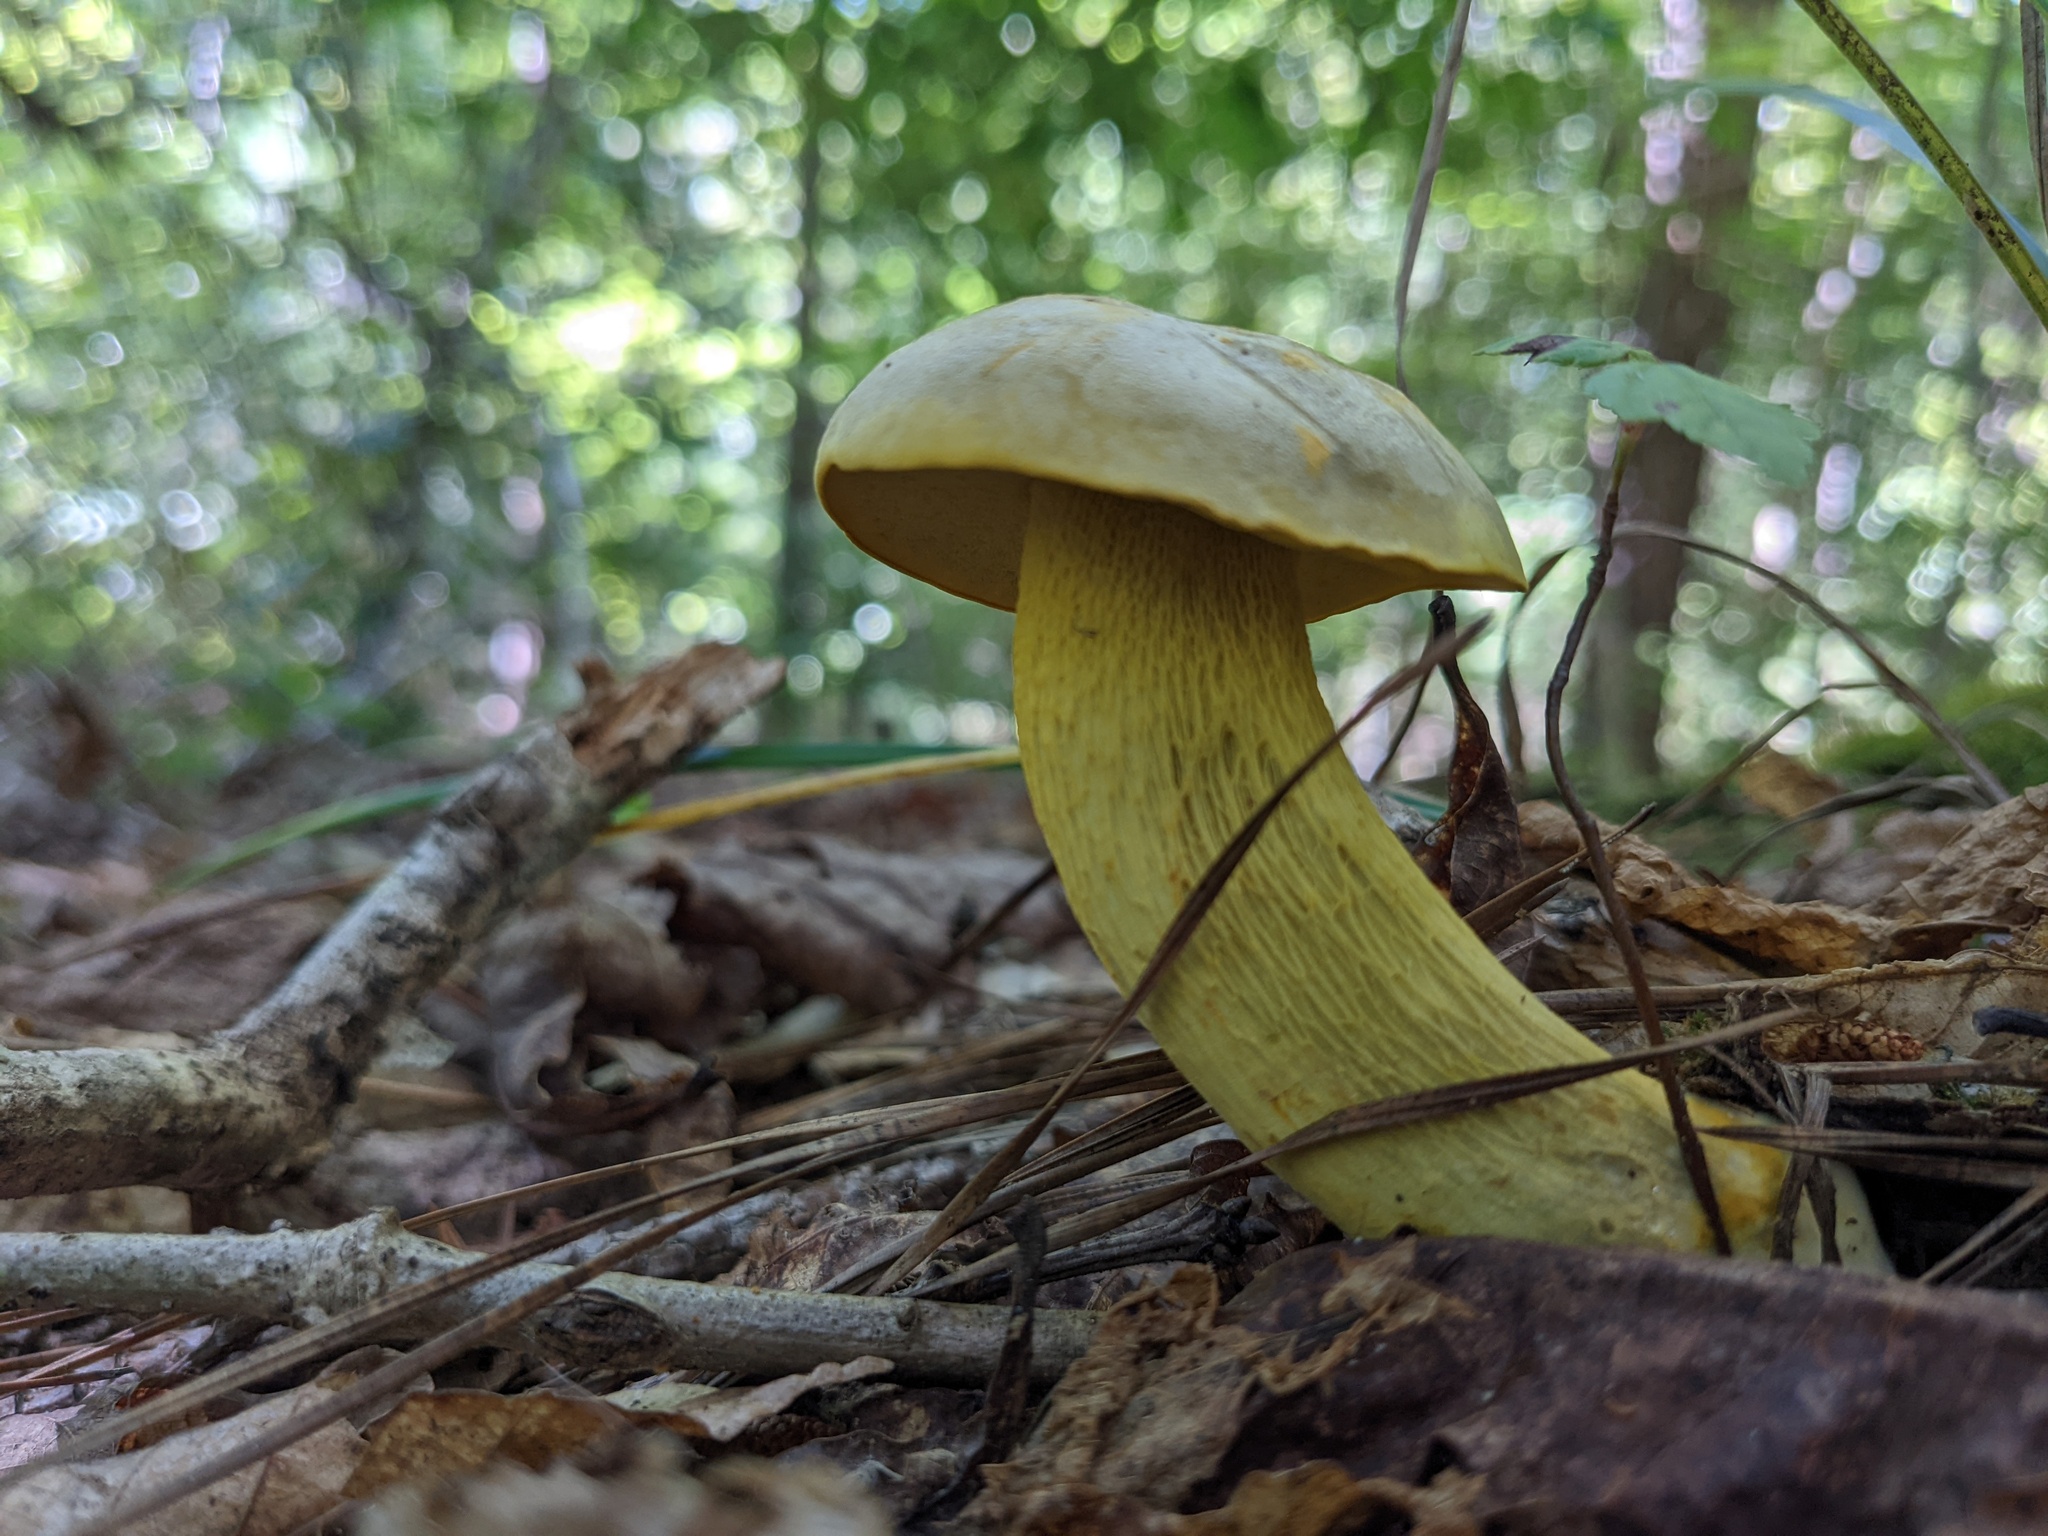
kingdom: Fungi
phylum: Basidiomycota
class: Agaricomycetes
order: Boletales
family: Boletaceae
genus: Retiboletus
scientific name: Retiboletus ornatipes
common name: Ornate-stalked bolete
